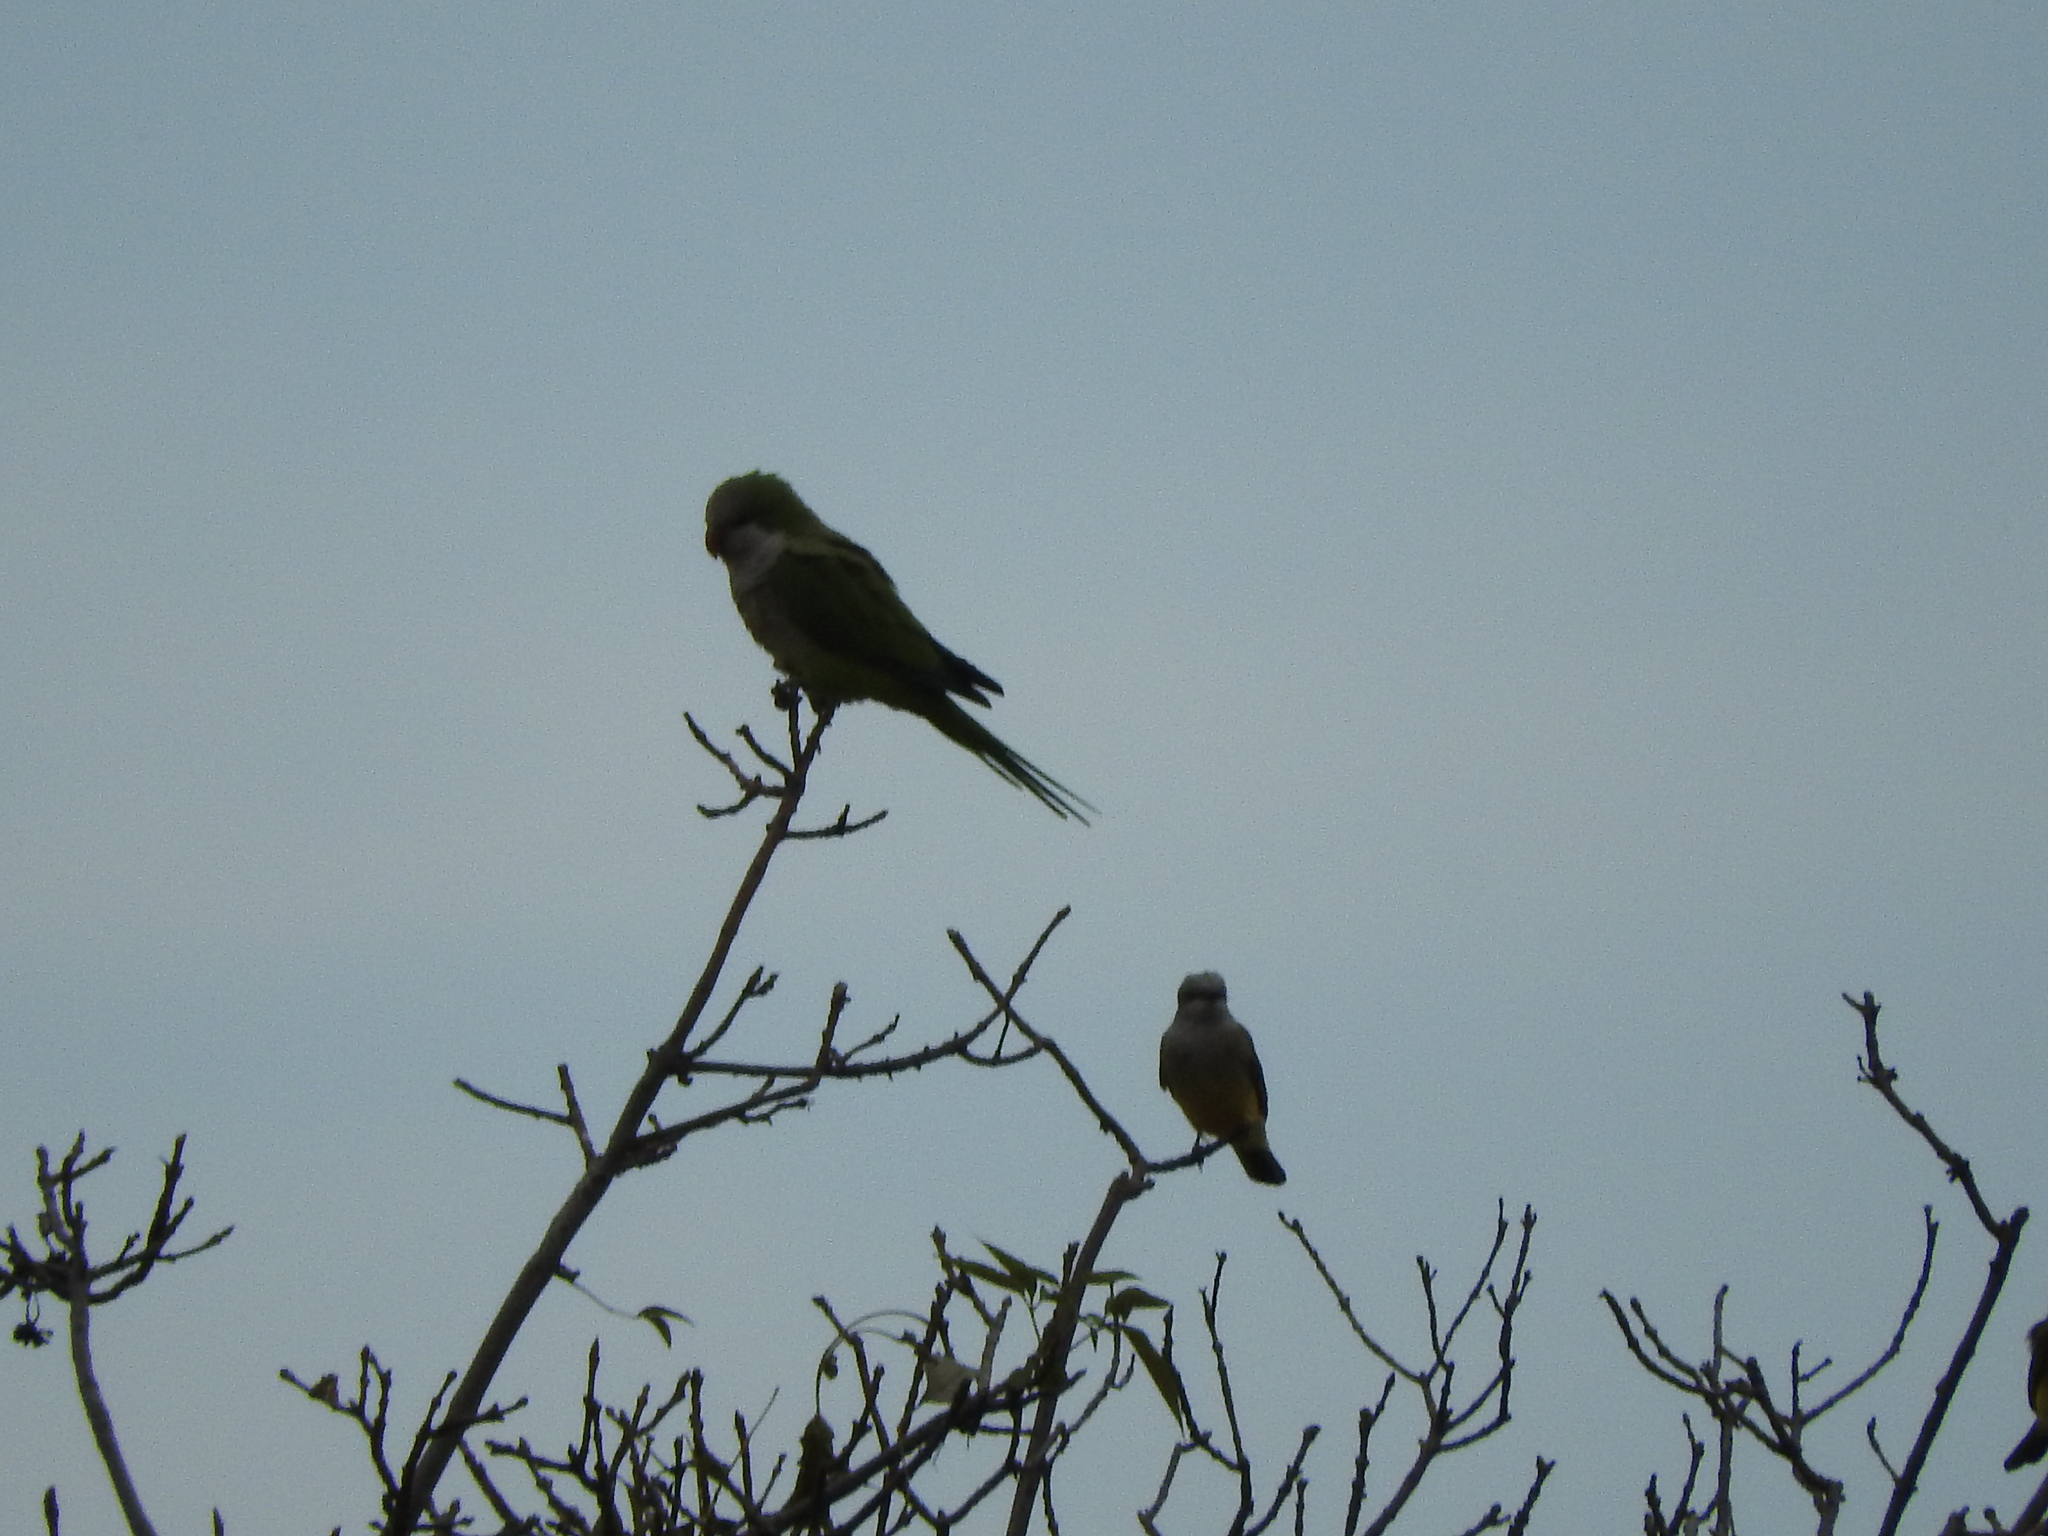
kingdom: Animalia
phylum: Chordata
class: Aves
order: Psittaciformes
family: Psittacidae
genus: Myiopsitta
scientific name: Myiopsitta monachus
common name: Monk parakeet
